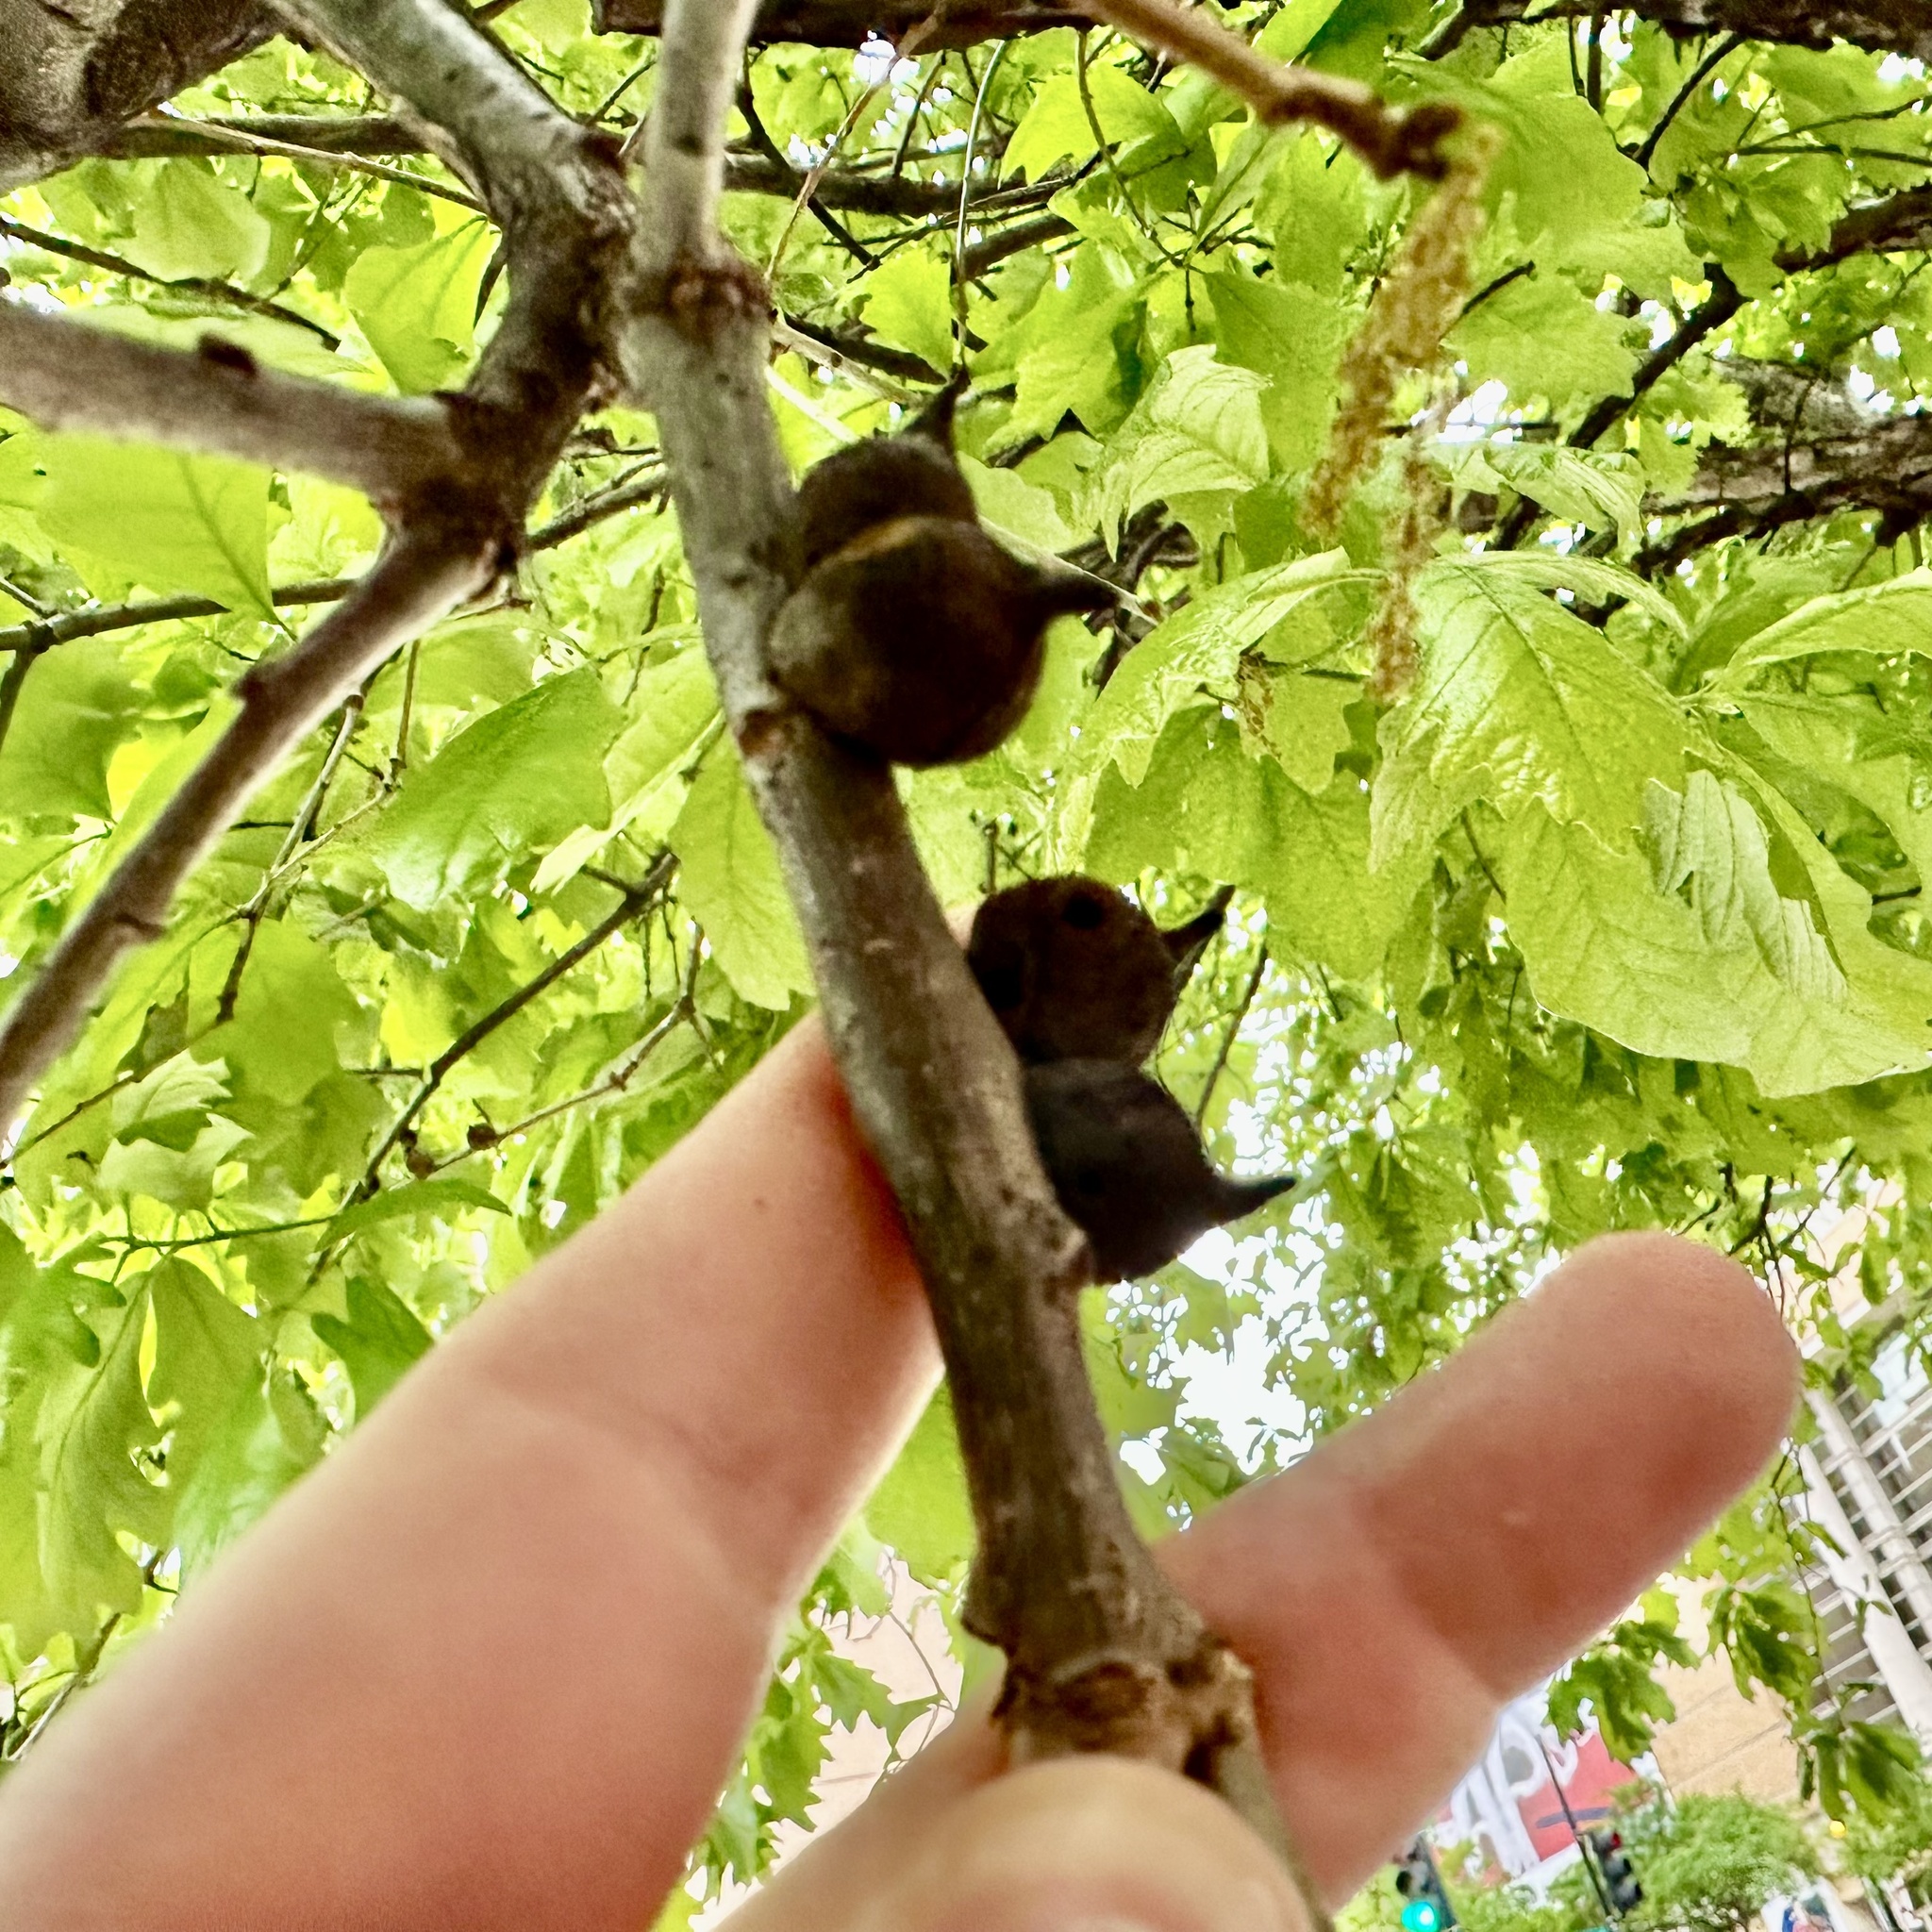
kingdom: Animalia
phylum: Arthropoda
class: Insecta
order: Hymenoptera
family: Cynipidae
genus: Disholcaspis
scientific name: Disholcaspis
